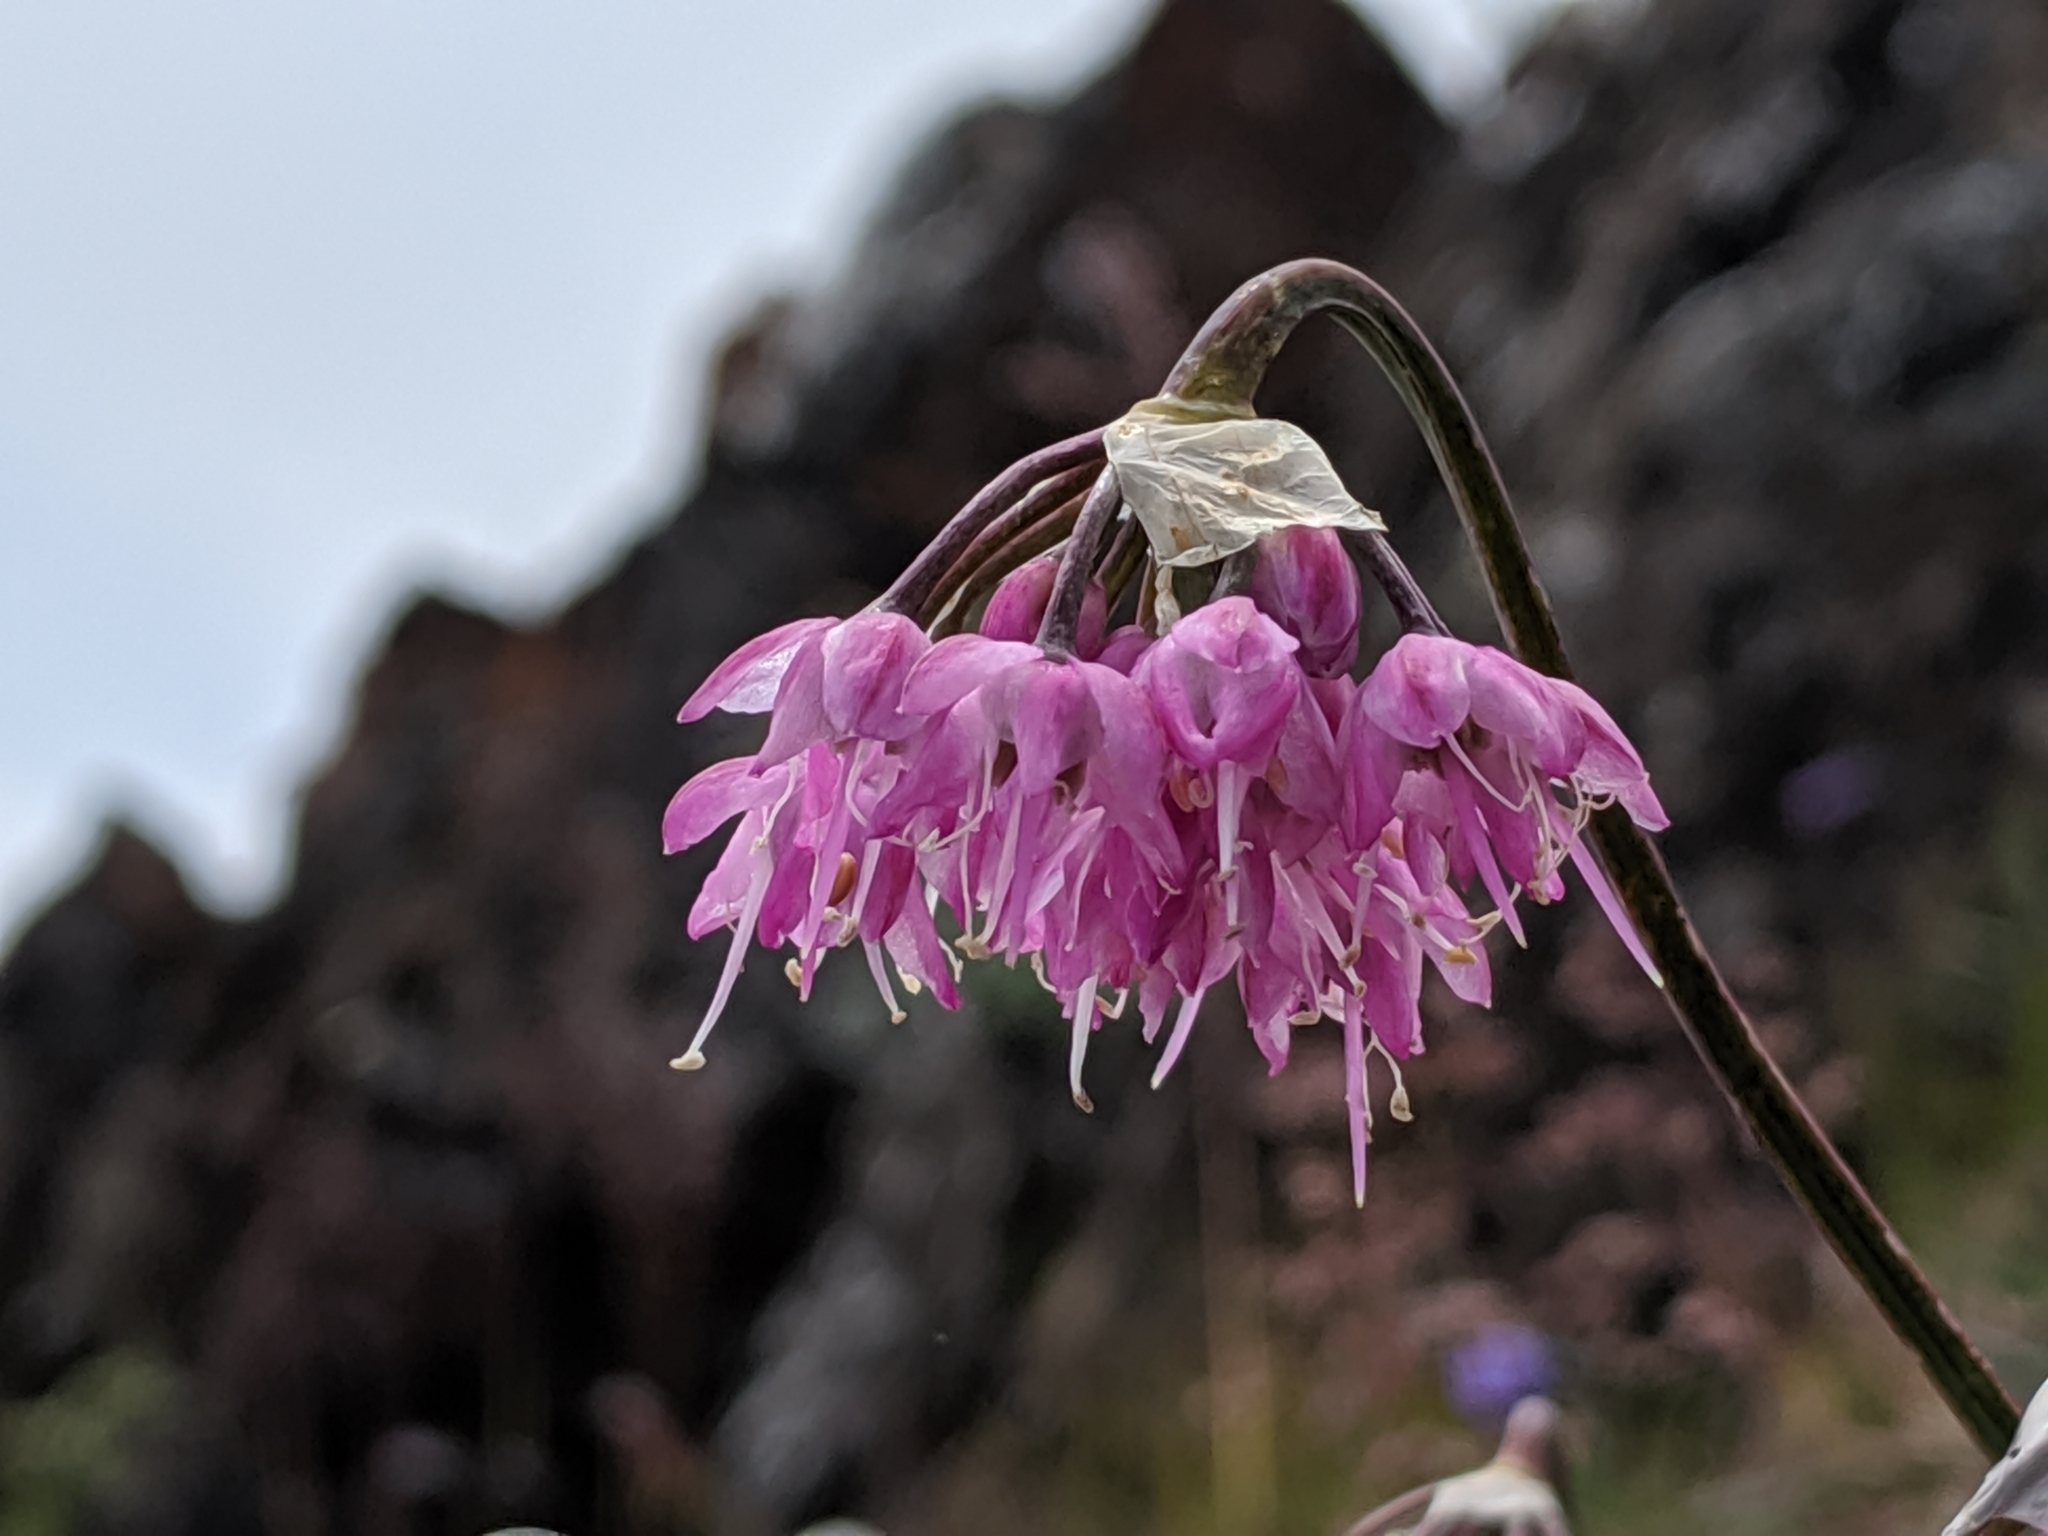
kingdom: Plantae
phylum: Tracheophyta
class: Liliopsida
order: Asparagales
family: Amaryllidaceae
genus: Allium
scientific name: Allium cernuum
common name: Nodding onion
